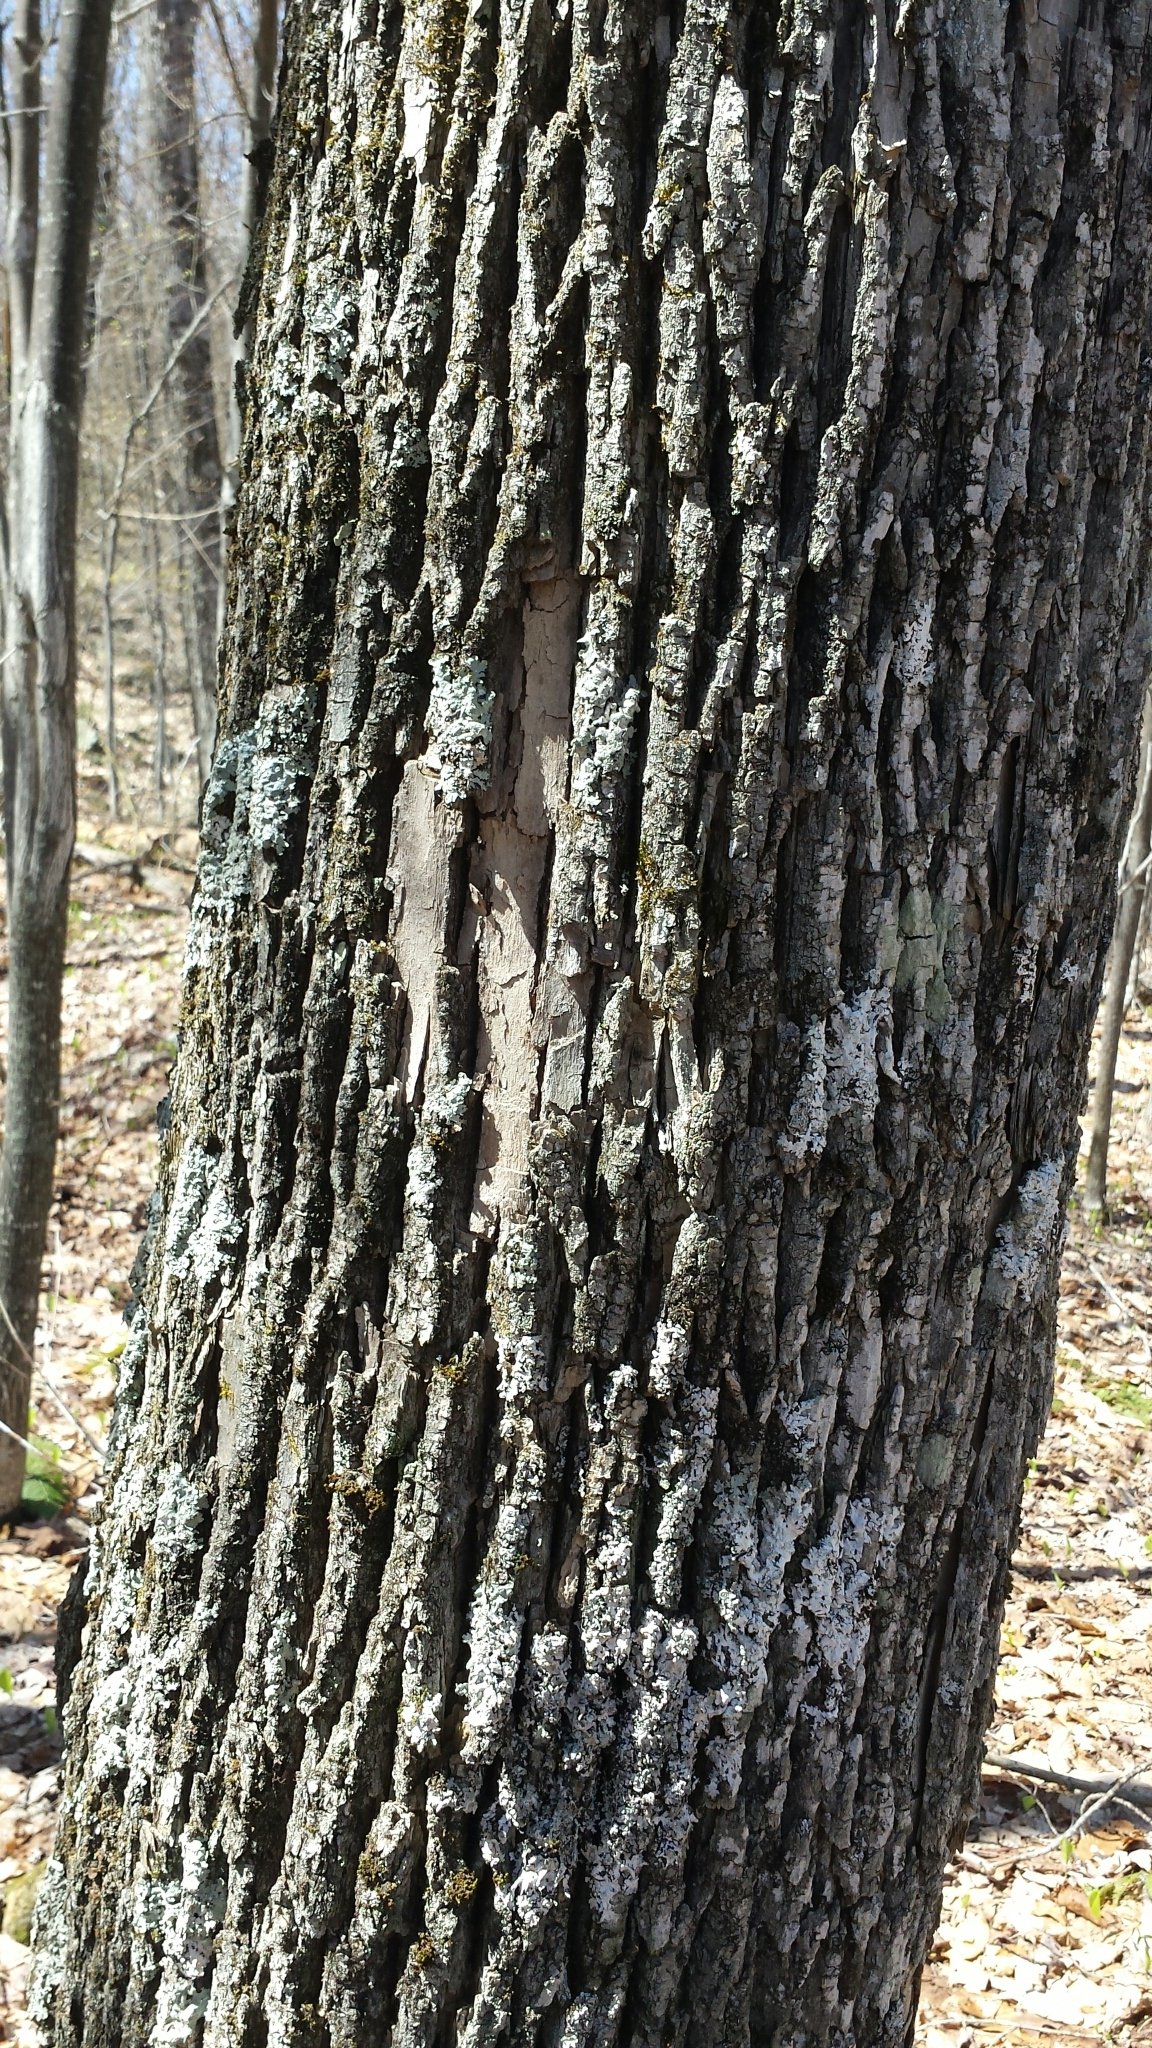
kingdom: Plantae
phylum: Tracheophyta
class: Magnoliopsida
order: Lamiales
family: Oleaceae
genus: Fraxinus
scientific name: Fraxinus americana
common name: White ash
